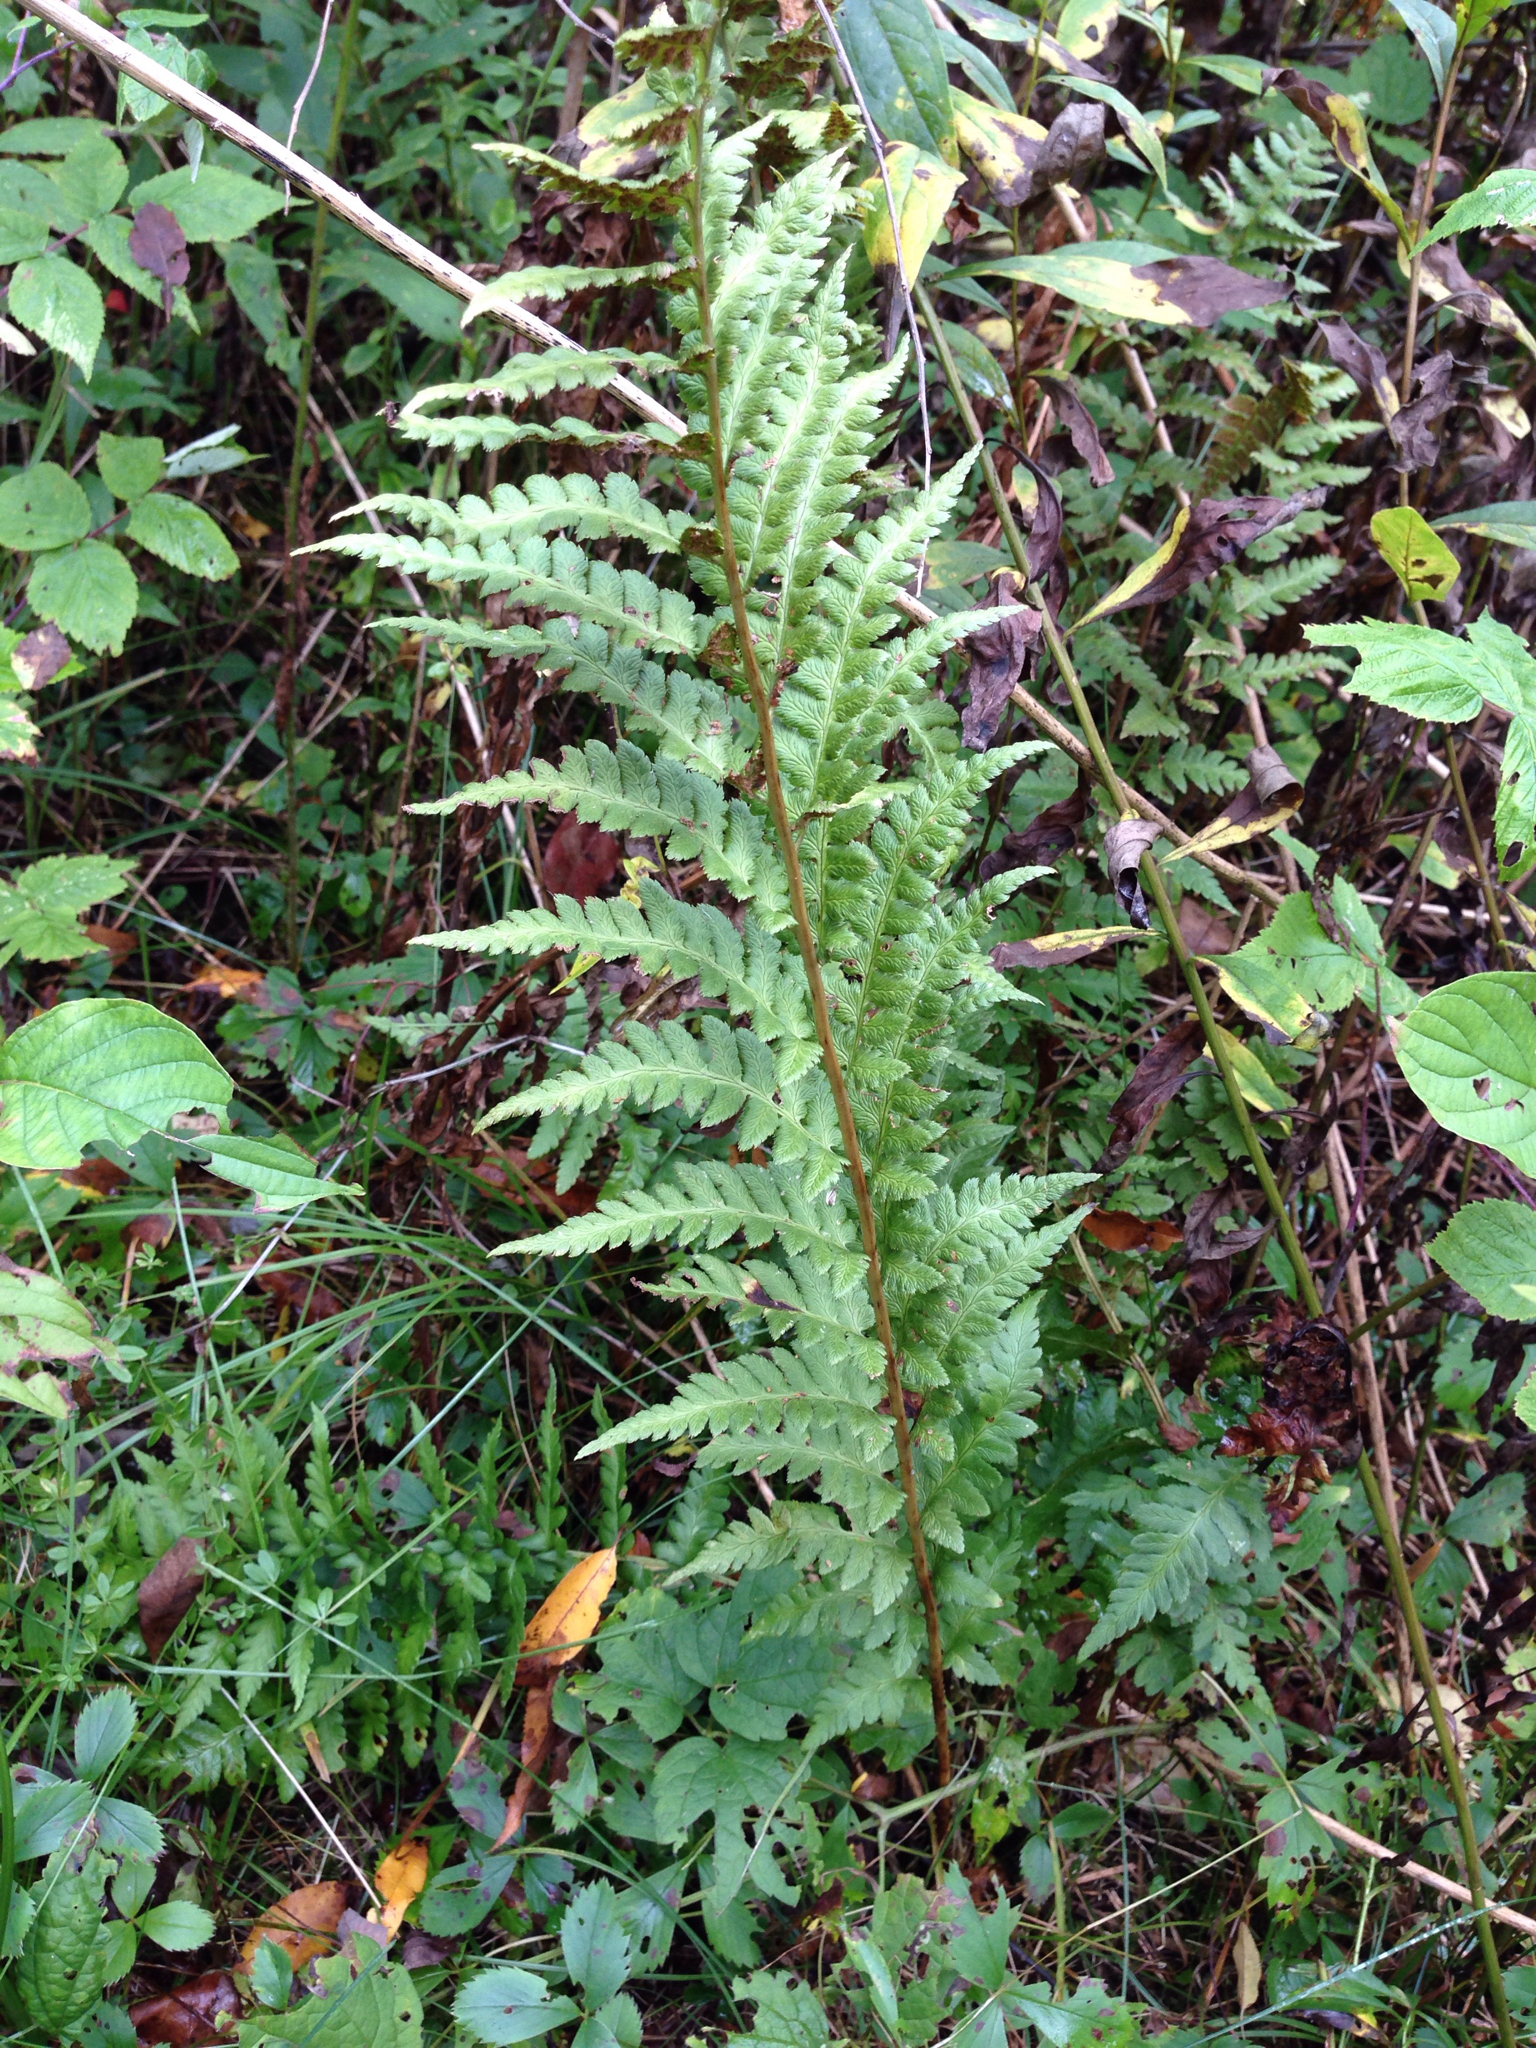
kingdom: Plantae
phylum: Tracheophyta
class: Polypodiopsida
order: Polypodiales
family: Dryopteridaceae
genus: Dryopteris
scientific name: Dryopteris cristata
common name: Crested wood fern
